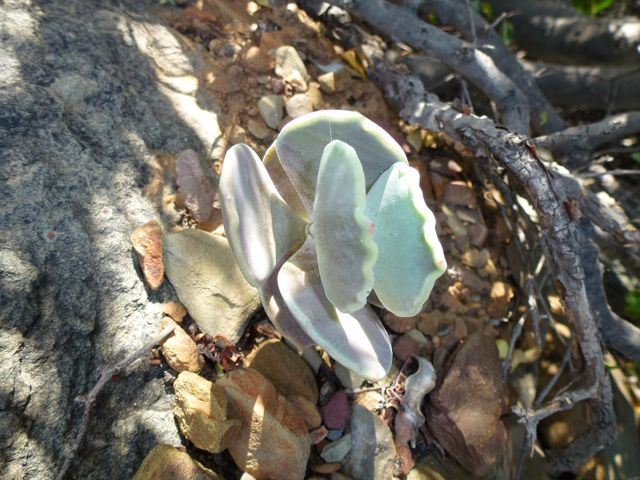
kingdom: Plantae
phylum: Tracheophyta
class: Magnoliopsida
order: Saxifragales
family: Crassulaceae
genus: Cotyledon
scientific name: Cotyledon orbiculata
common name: Pig's ear
